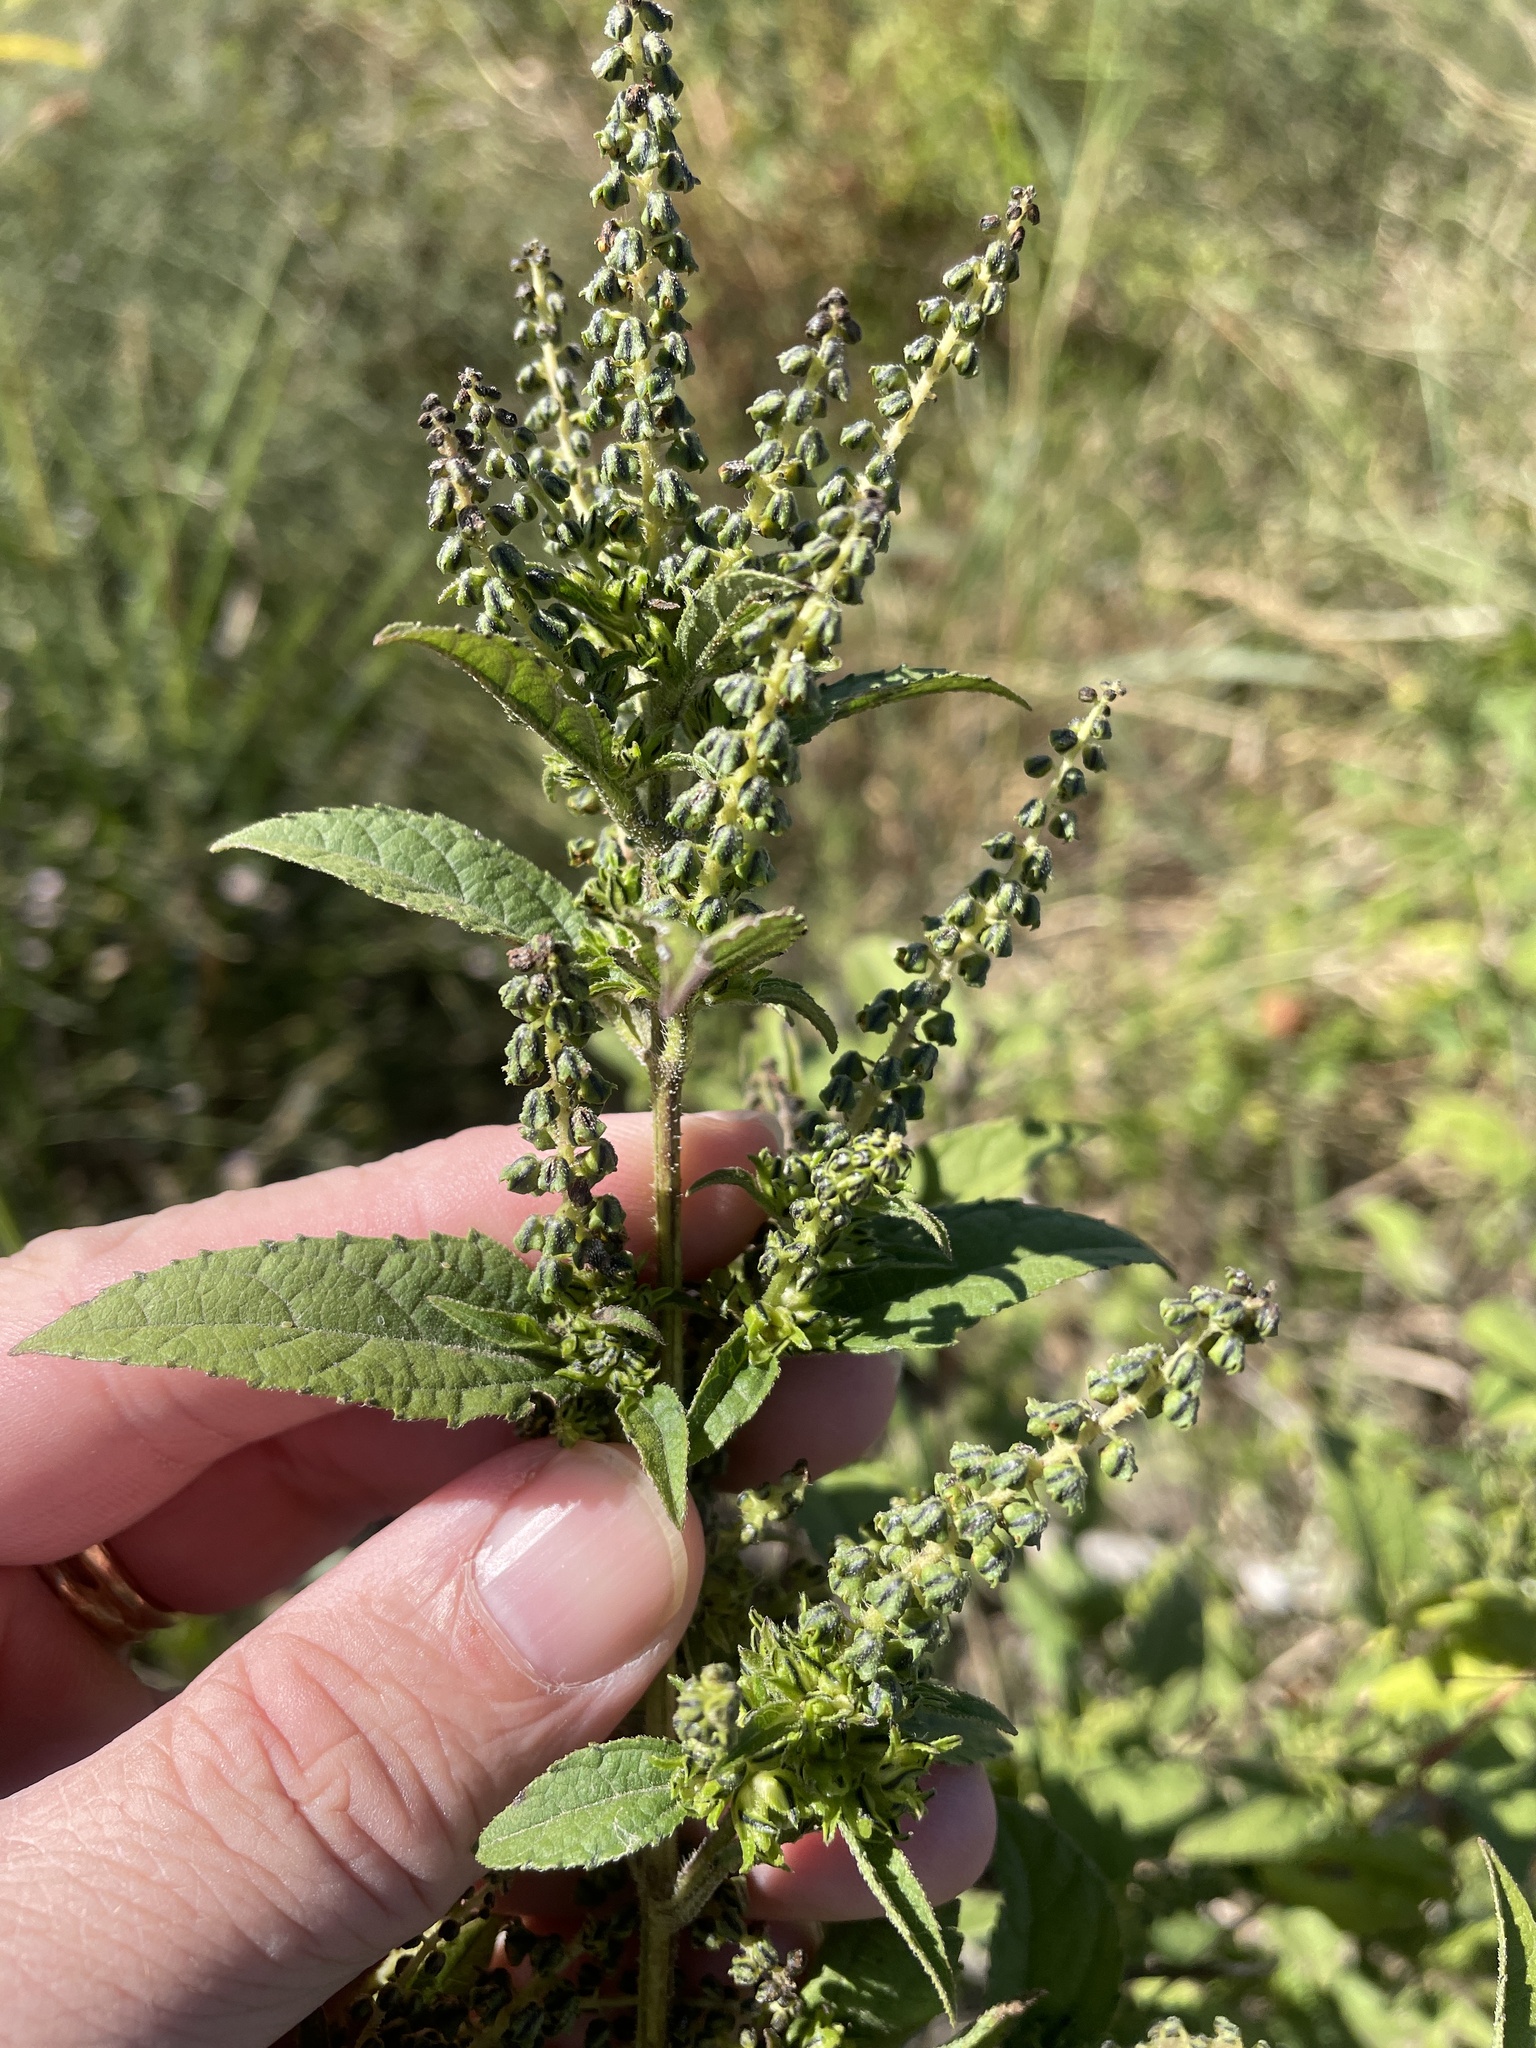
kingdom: Plantae
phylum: Tracheophyta
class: Magnoliopsida
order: Asterales
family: Asteraceae
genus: Ambrosia
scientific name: Ambrosia psilostachya
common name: Perennial ragweed
